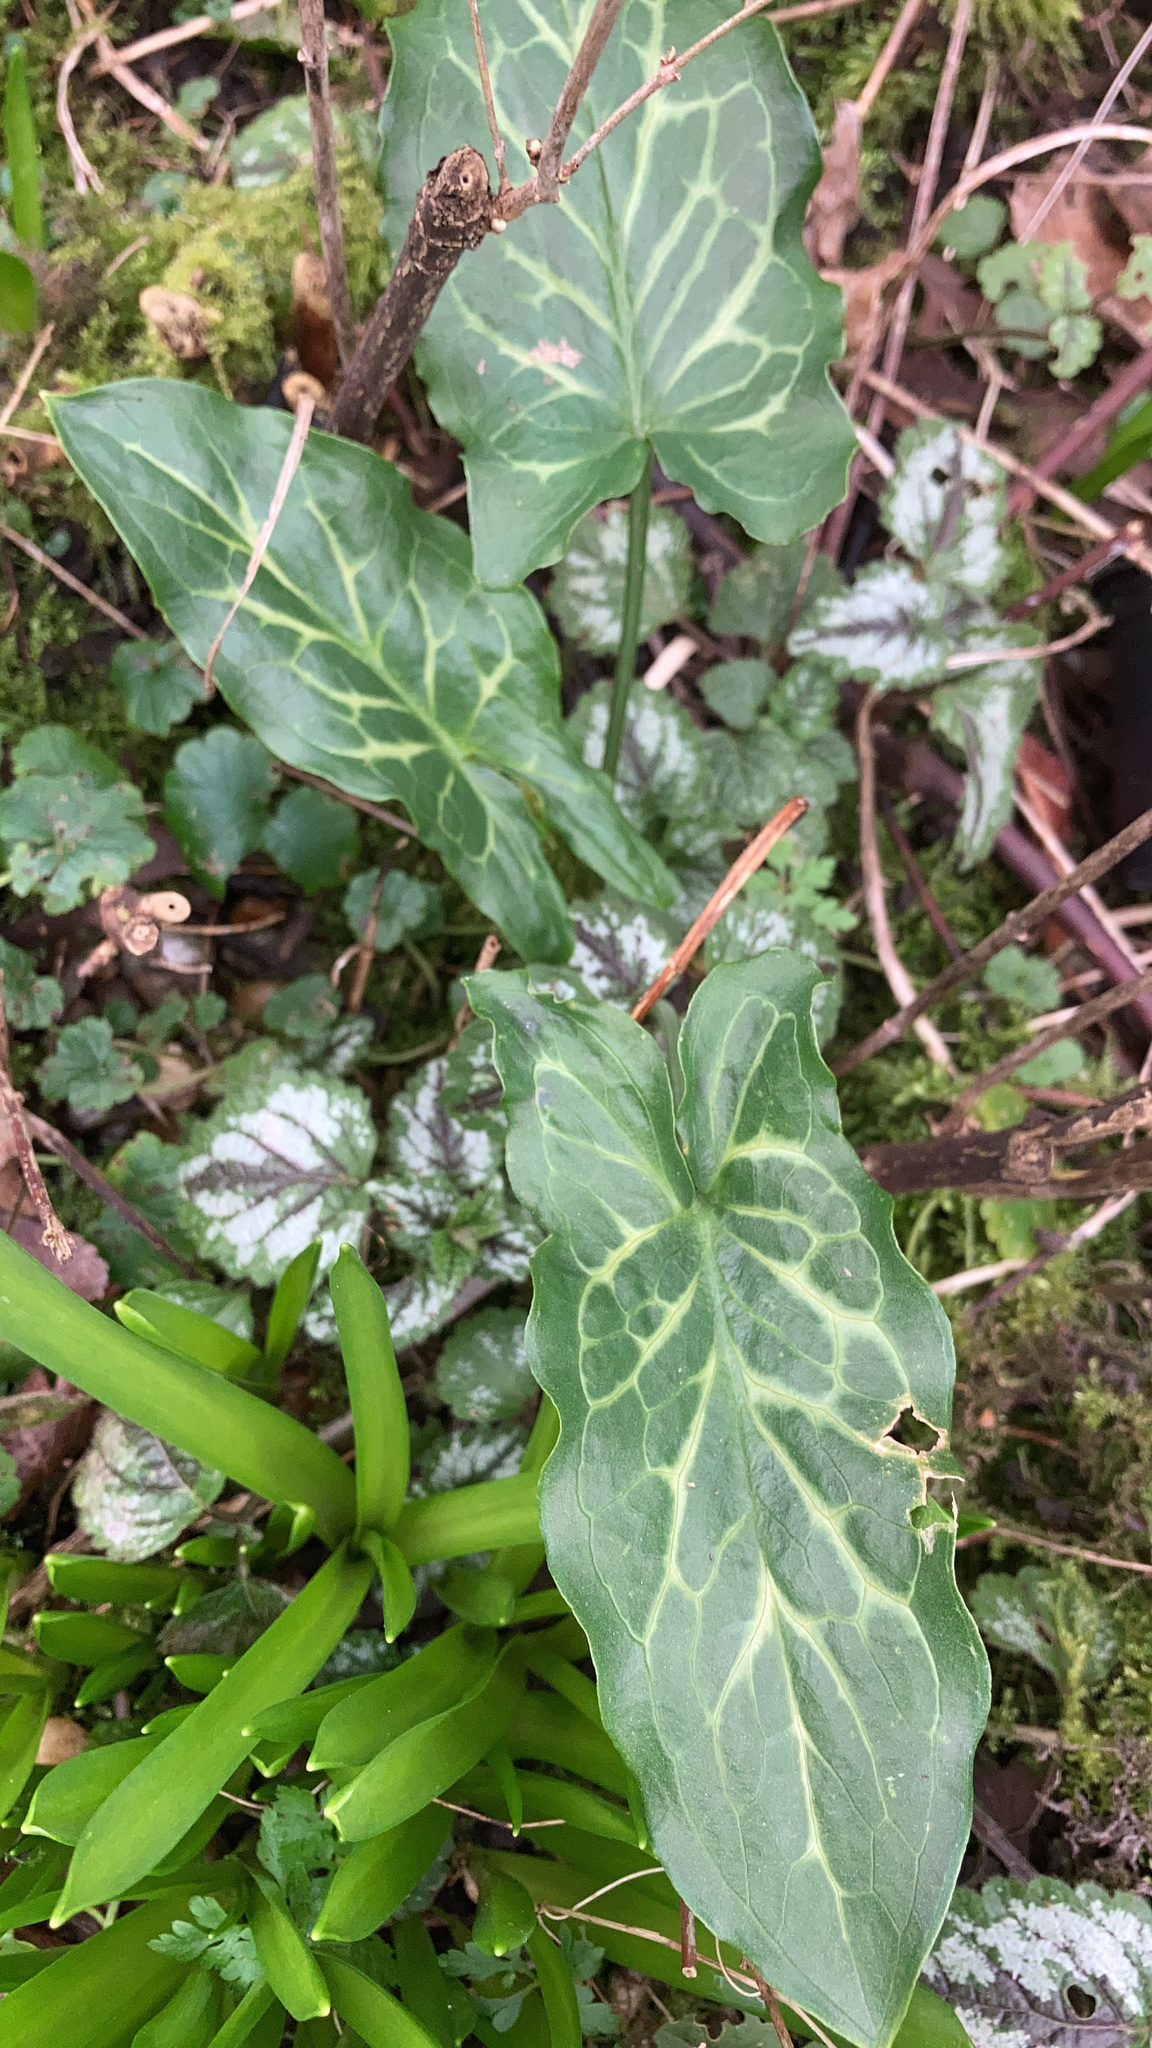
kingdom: Plantae
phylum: Tracheophyta
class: Liliopsida
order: Alismatales
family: Araceae
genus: Arum
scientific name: Arum italicum
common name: Italian lords-and-ladies
